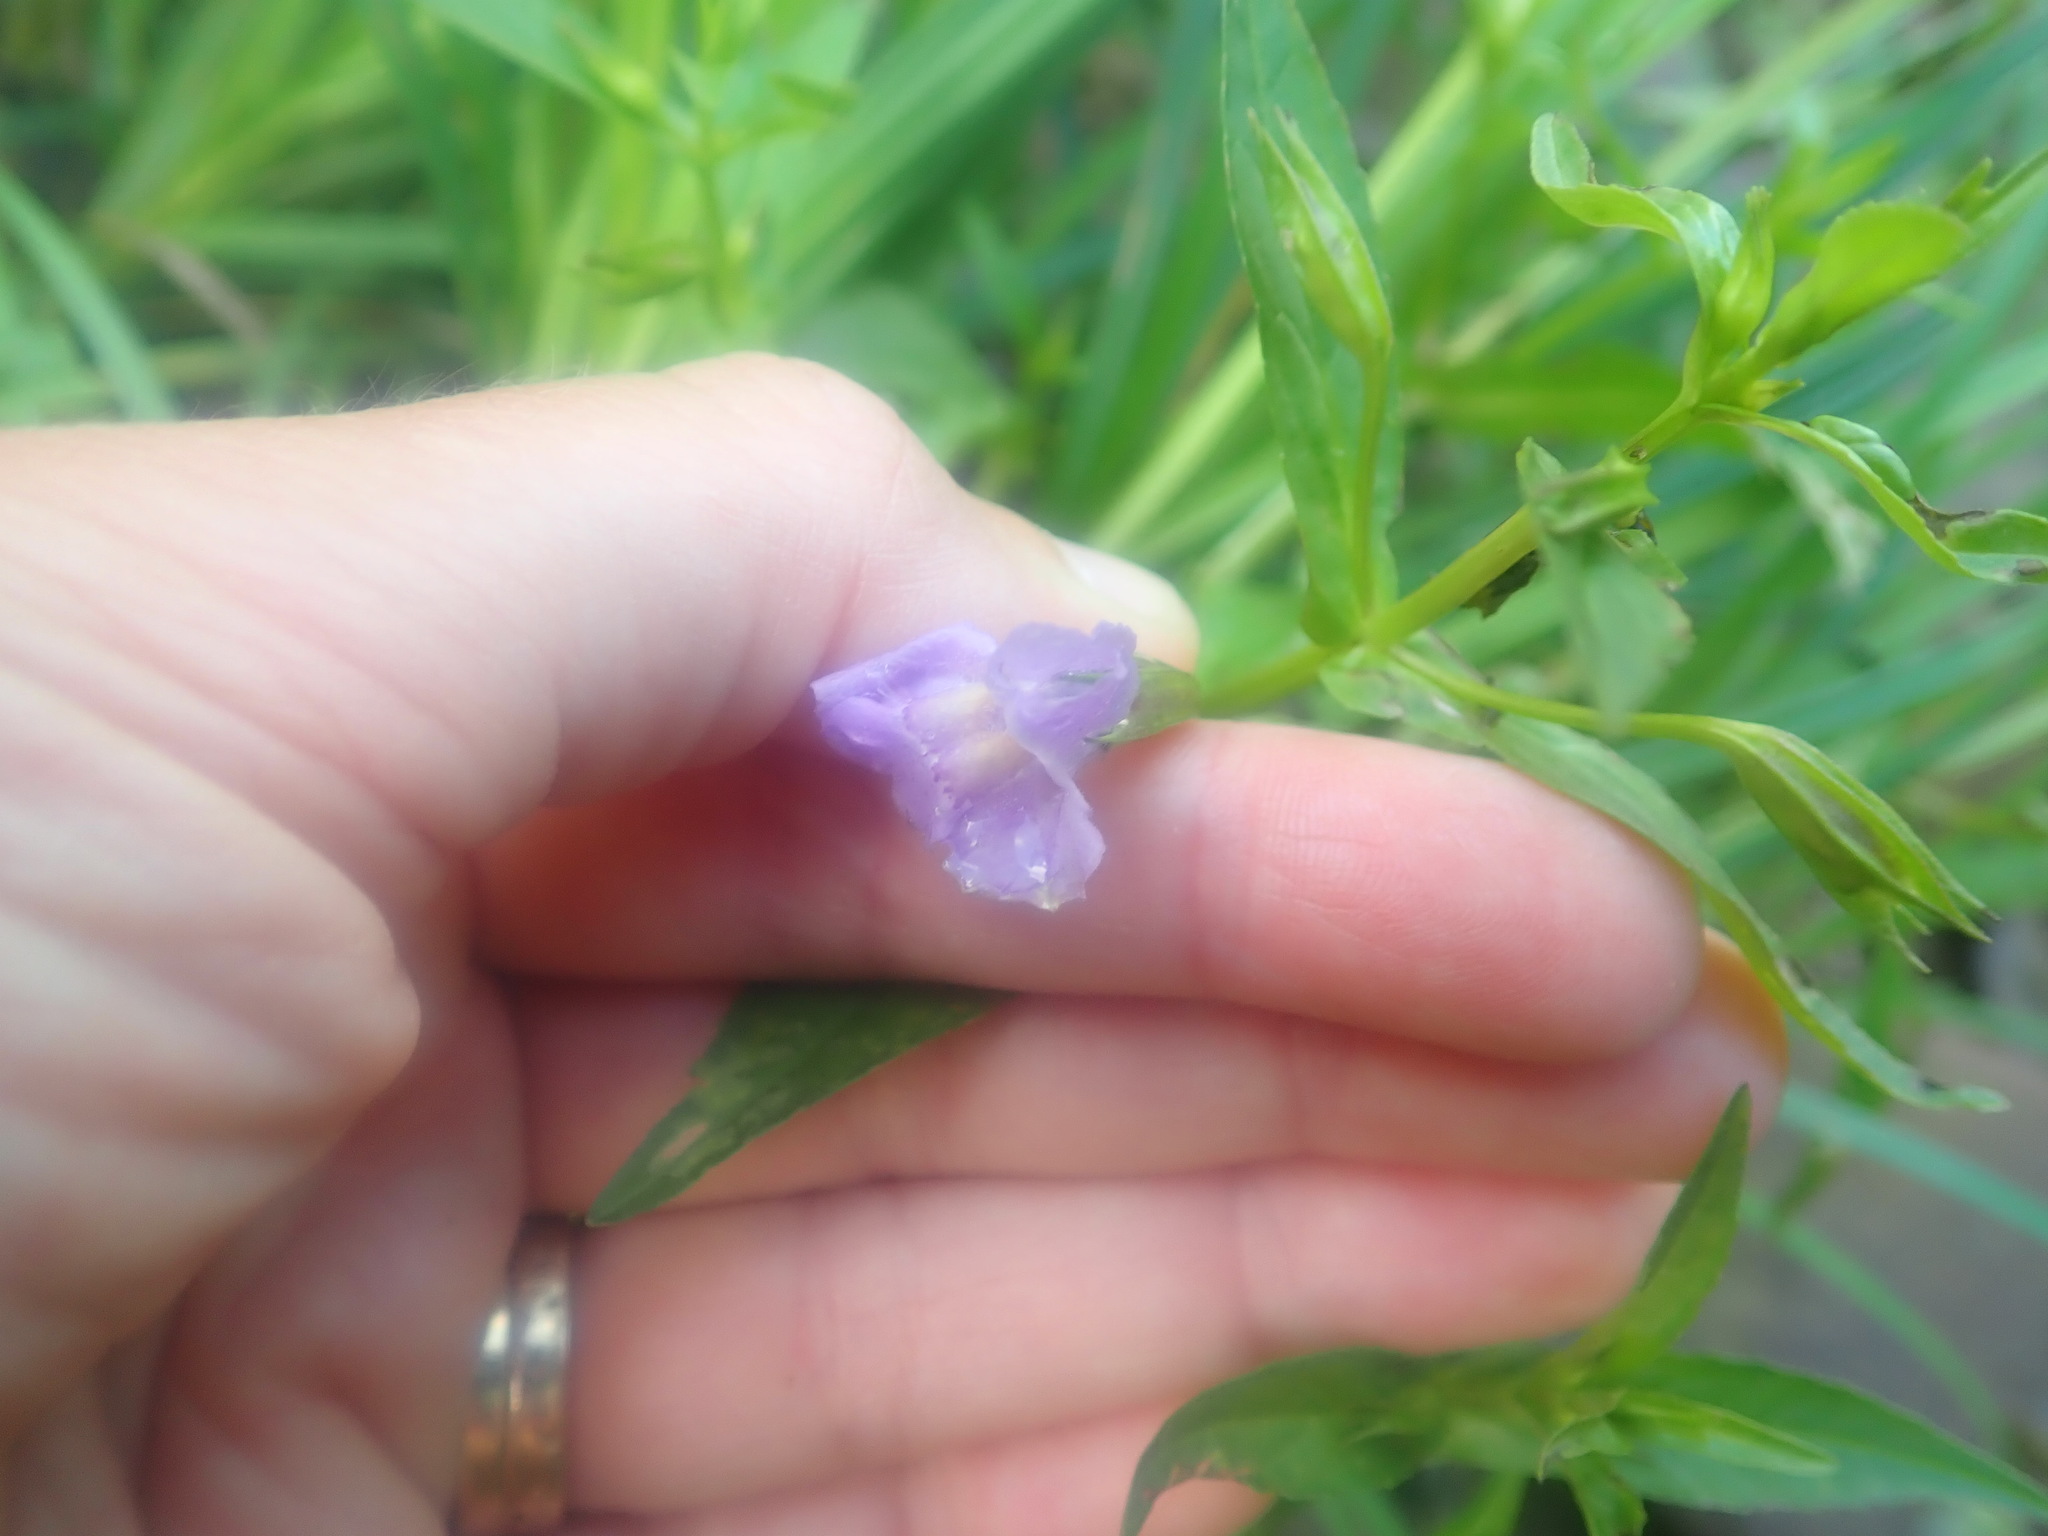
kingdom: Plantae
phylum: Tracheophyta
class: Magnoliopsida
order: Lamiales
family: Phrymaceae
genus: Mimulus
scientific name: Mimulus ringens
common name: Allegheny monkeyflower
